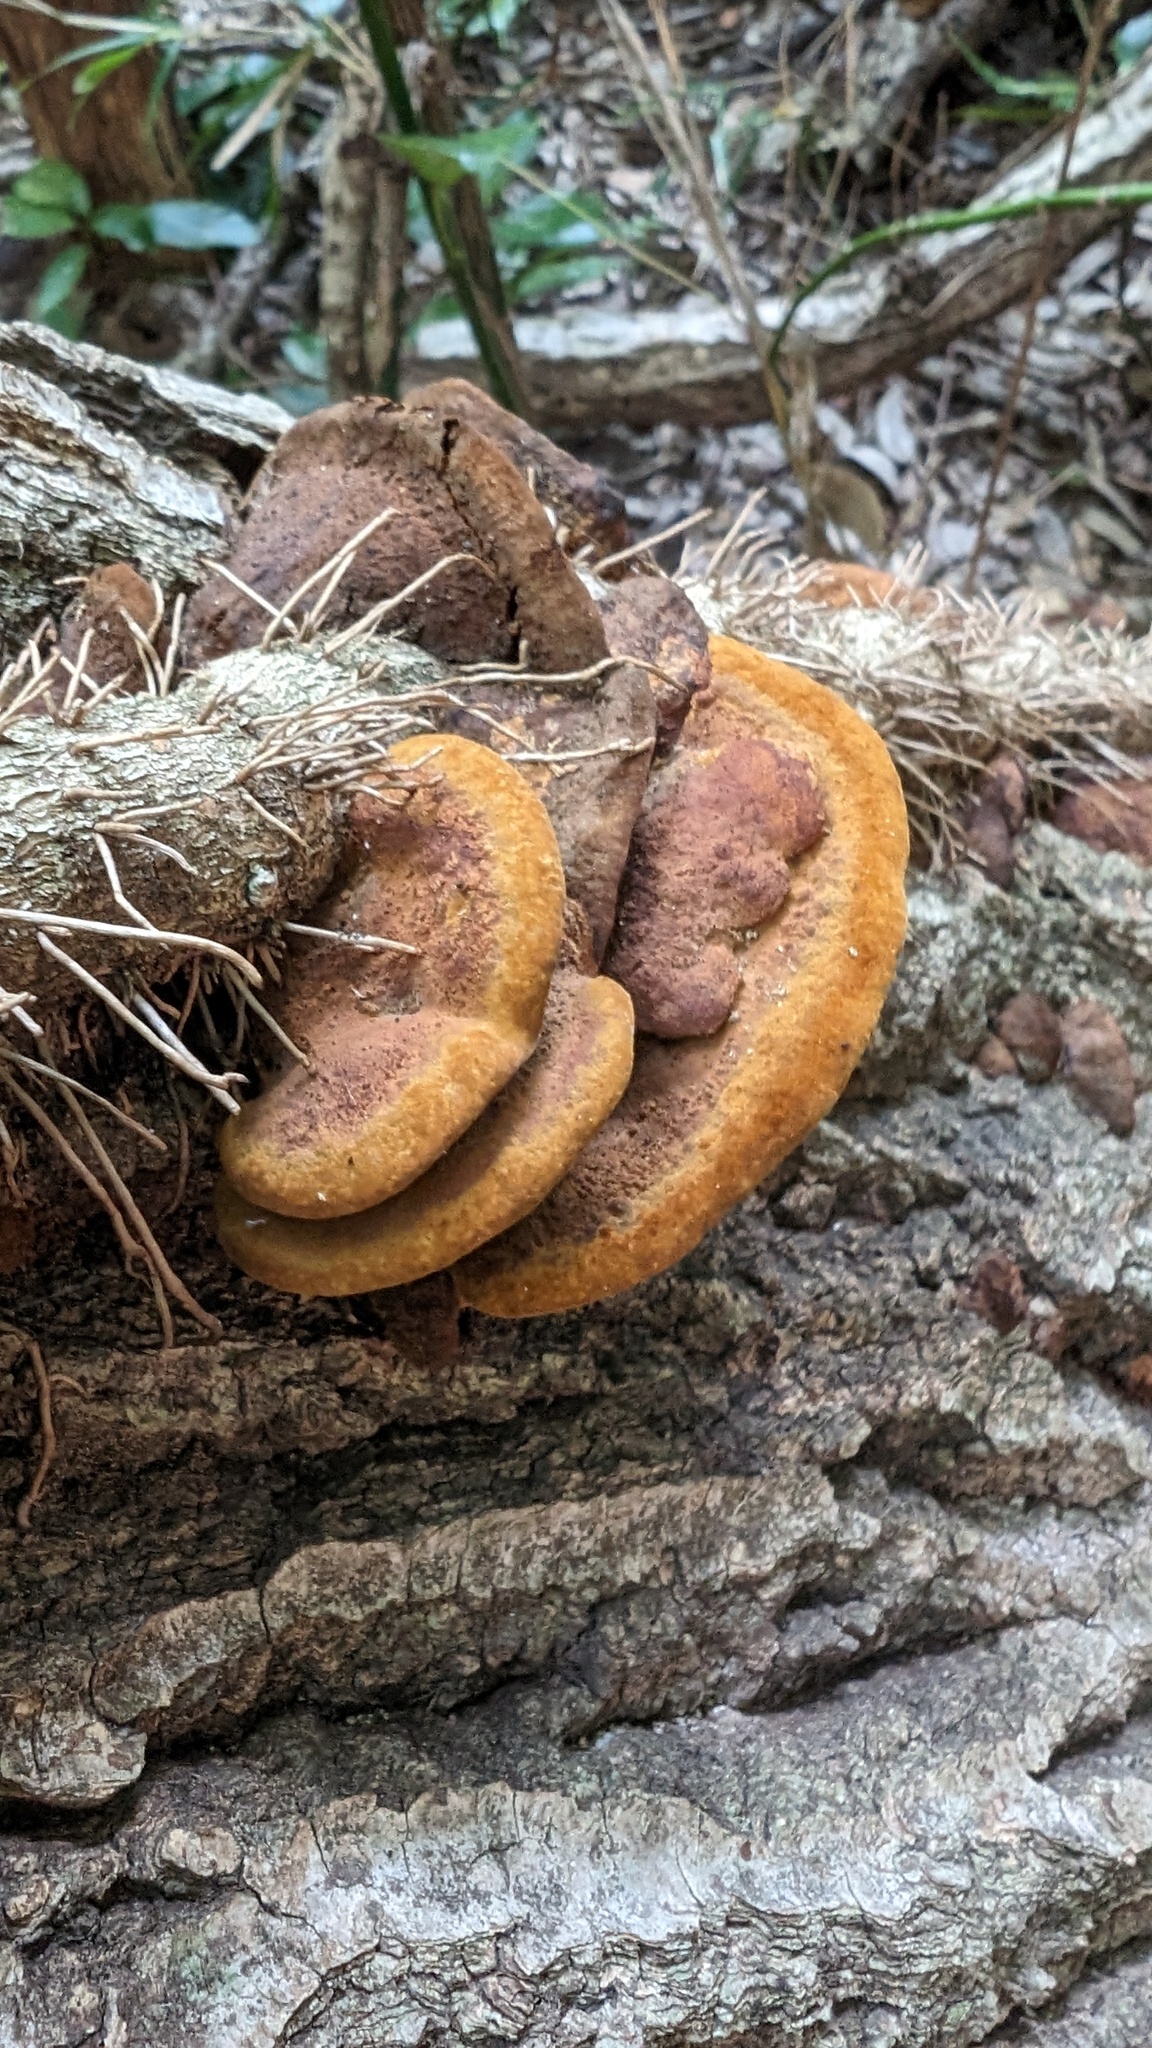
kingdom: Fungi
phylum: Basidiomycota
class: Agaricomycetes
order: Hymenochaetales
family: Hymenochaetaceae
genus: Phellinus
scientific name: Phellinus gilvus
